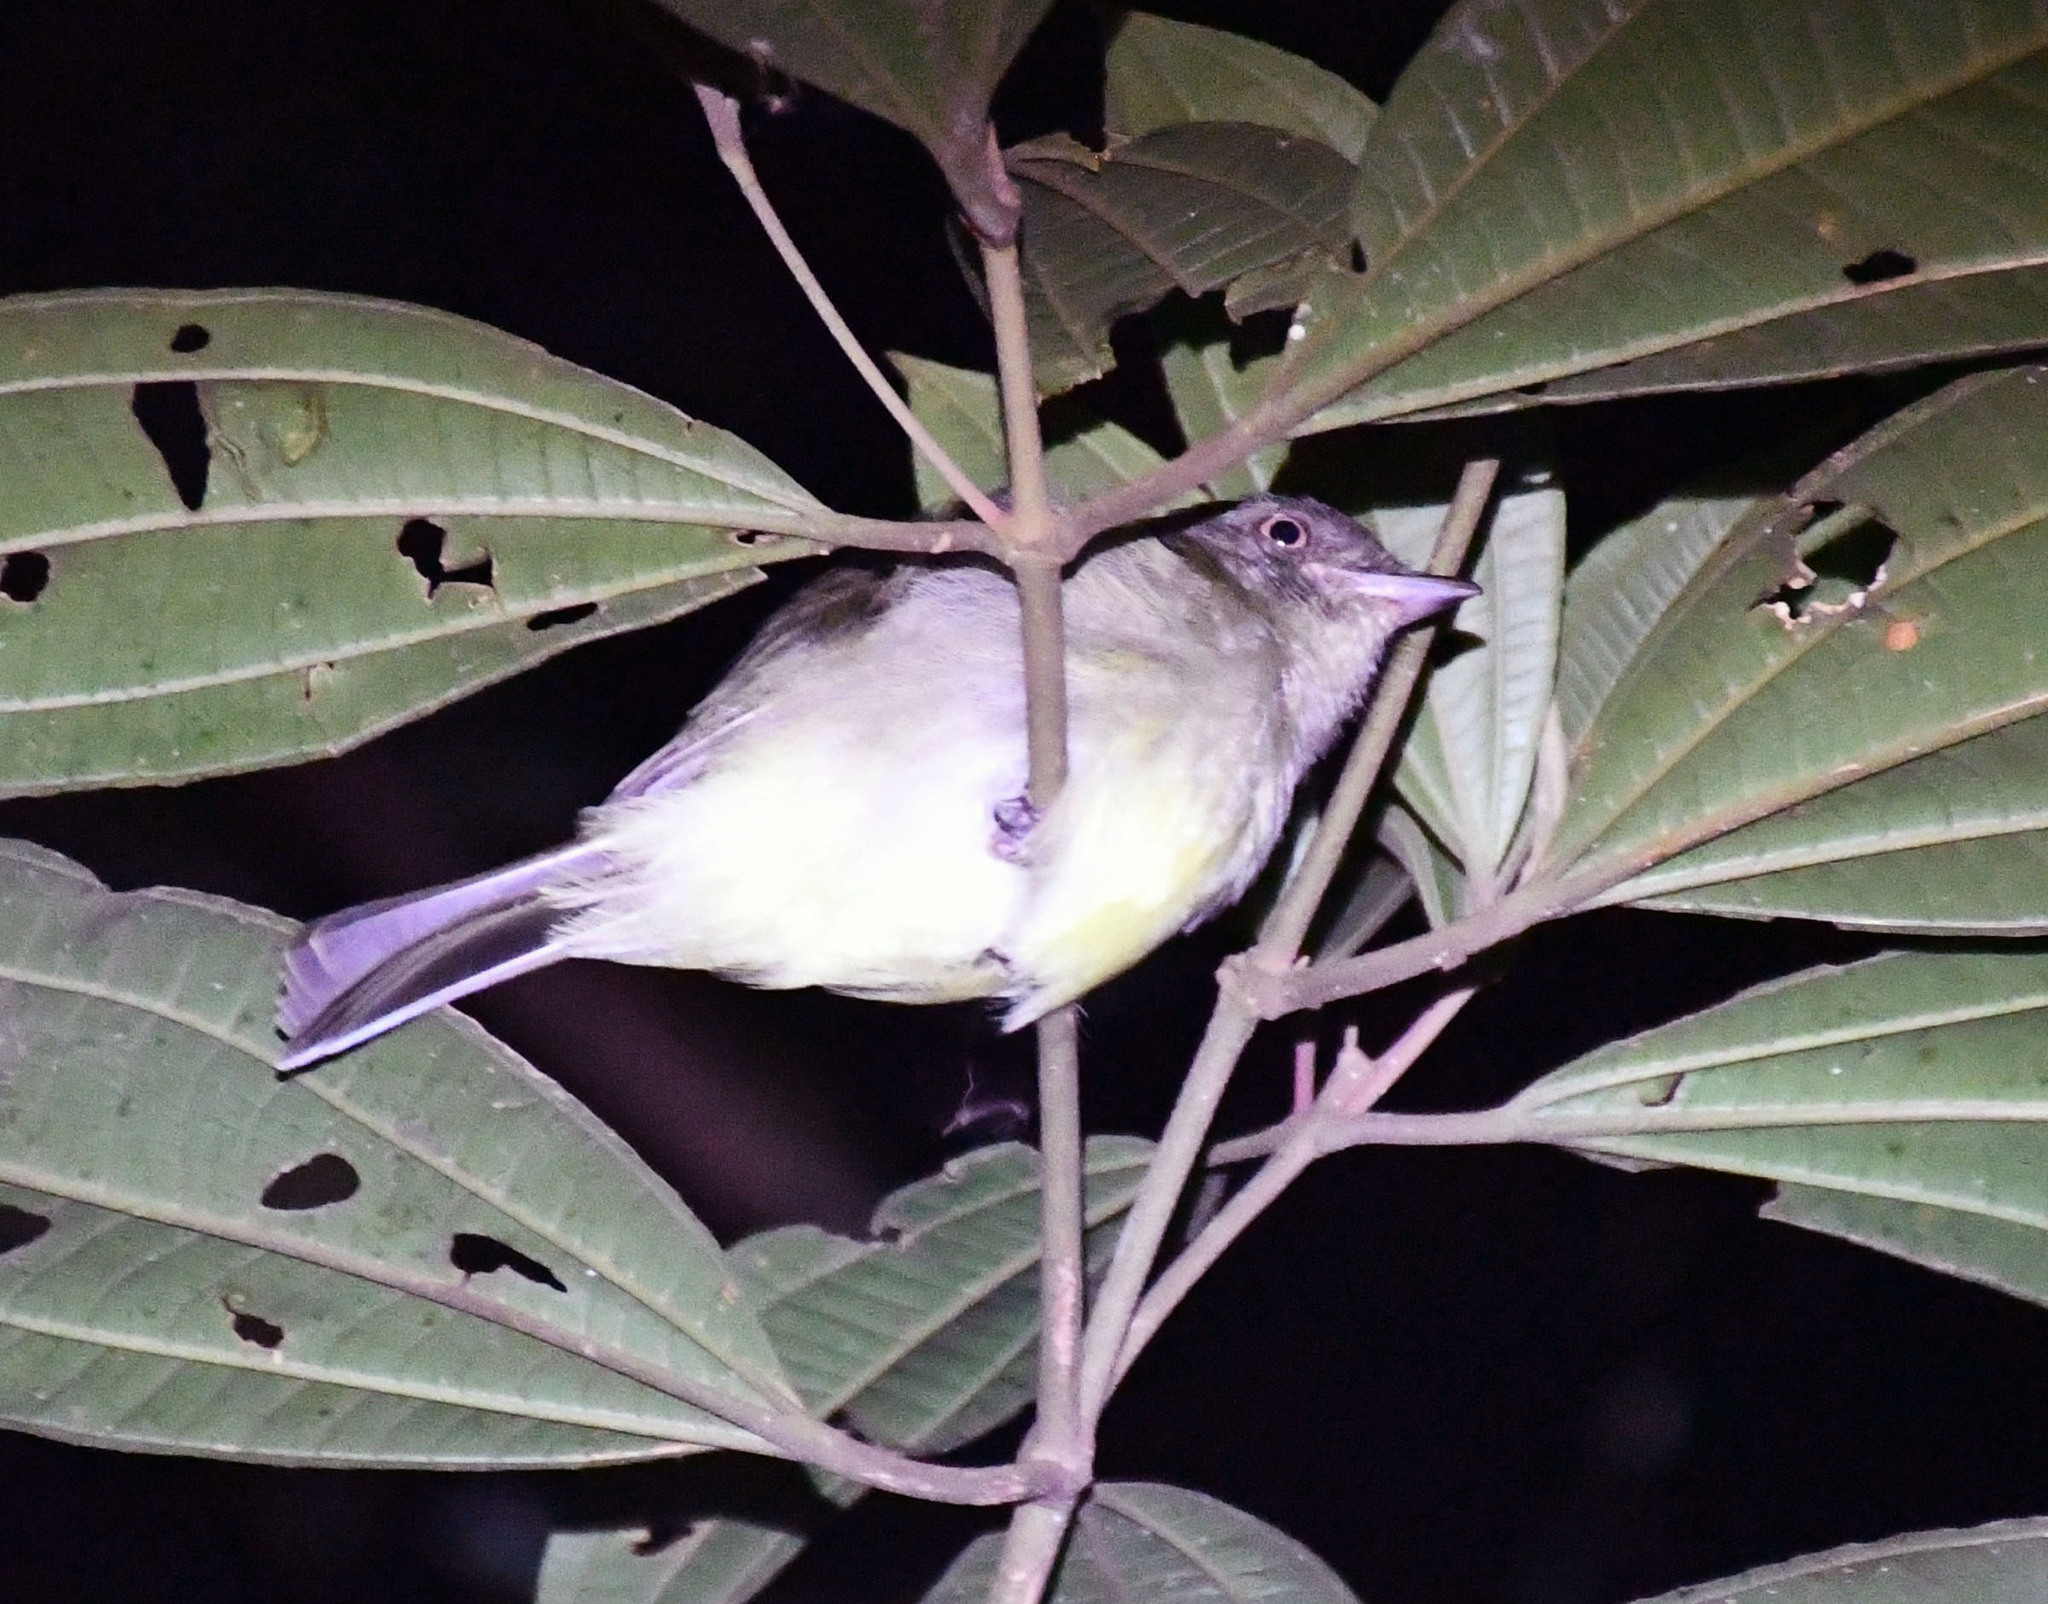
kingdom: Animalia
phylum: Chordata
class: Aves
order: Passeriformes
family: Pipridae
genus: Tyranneutes
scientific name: Tyranneutes stolzmanni
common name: Dwarf tyrant-manakin
